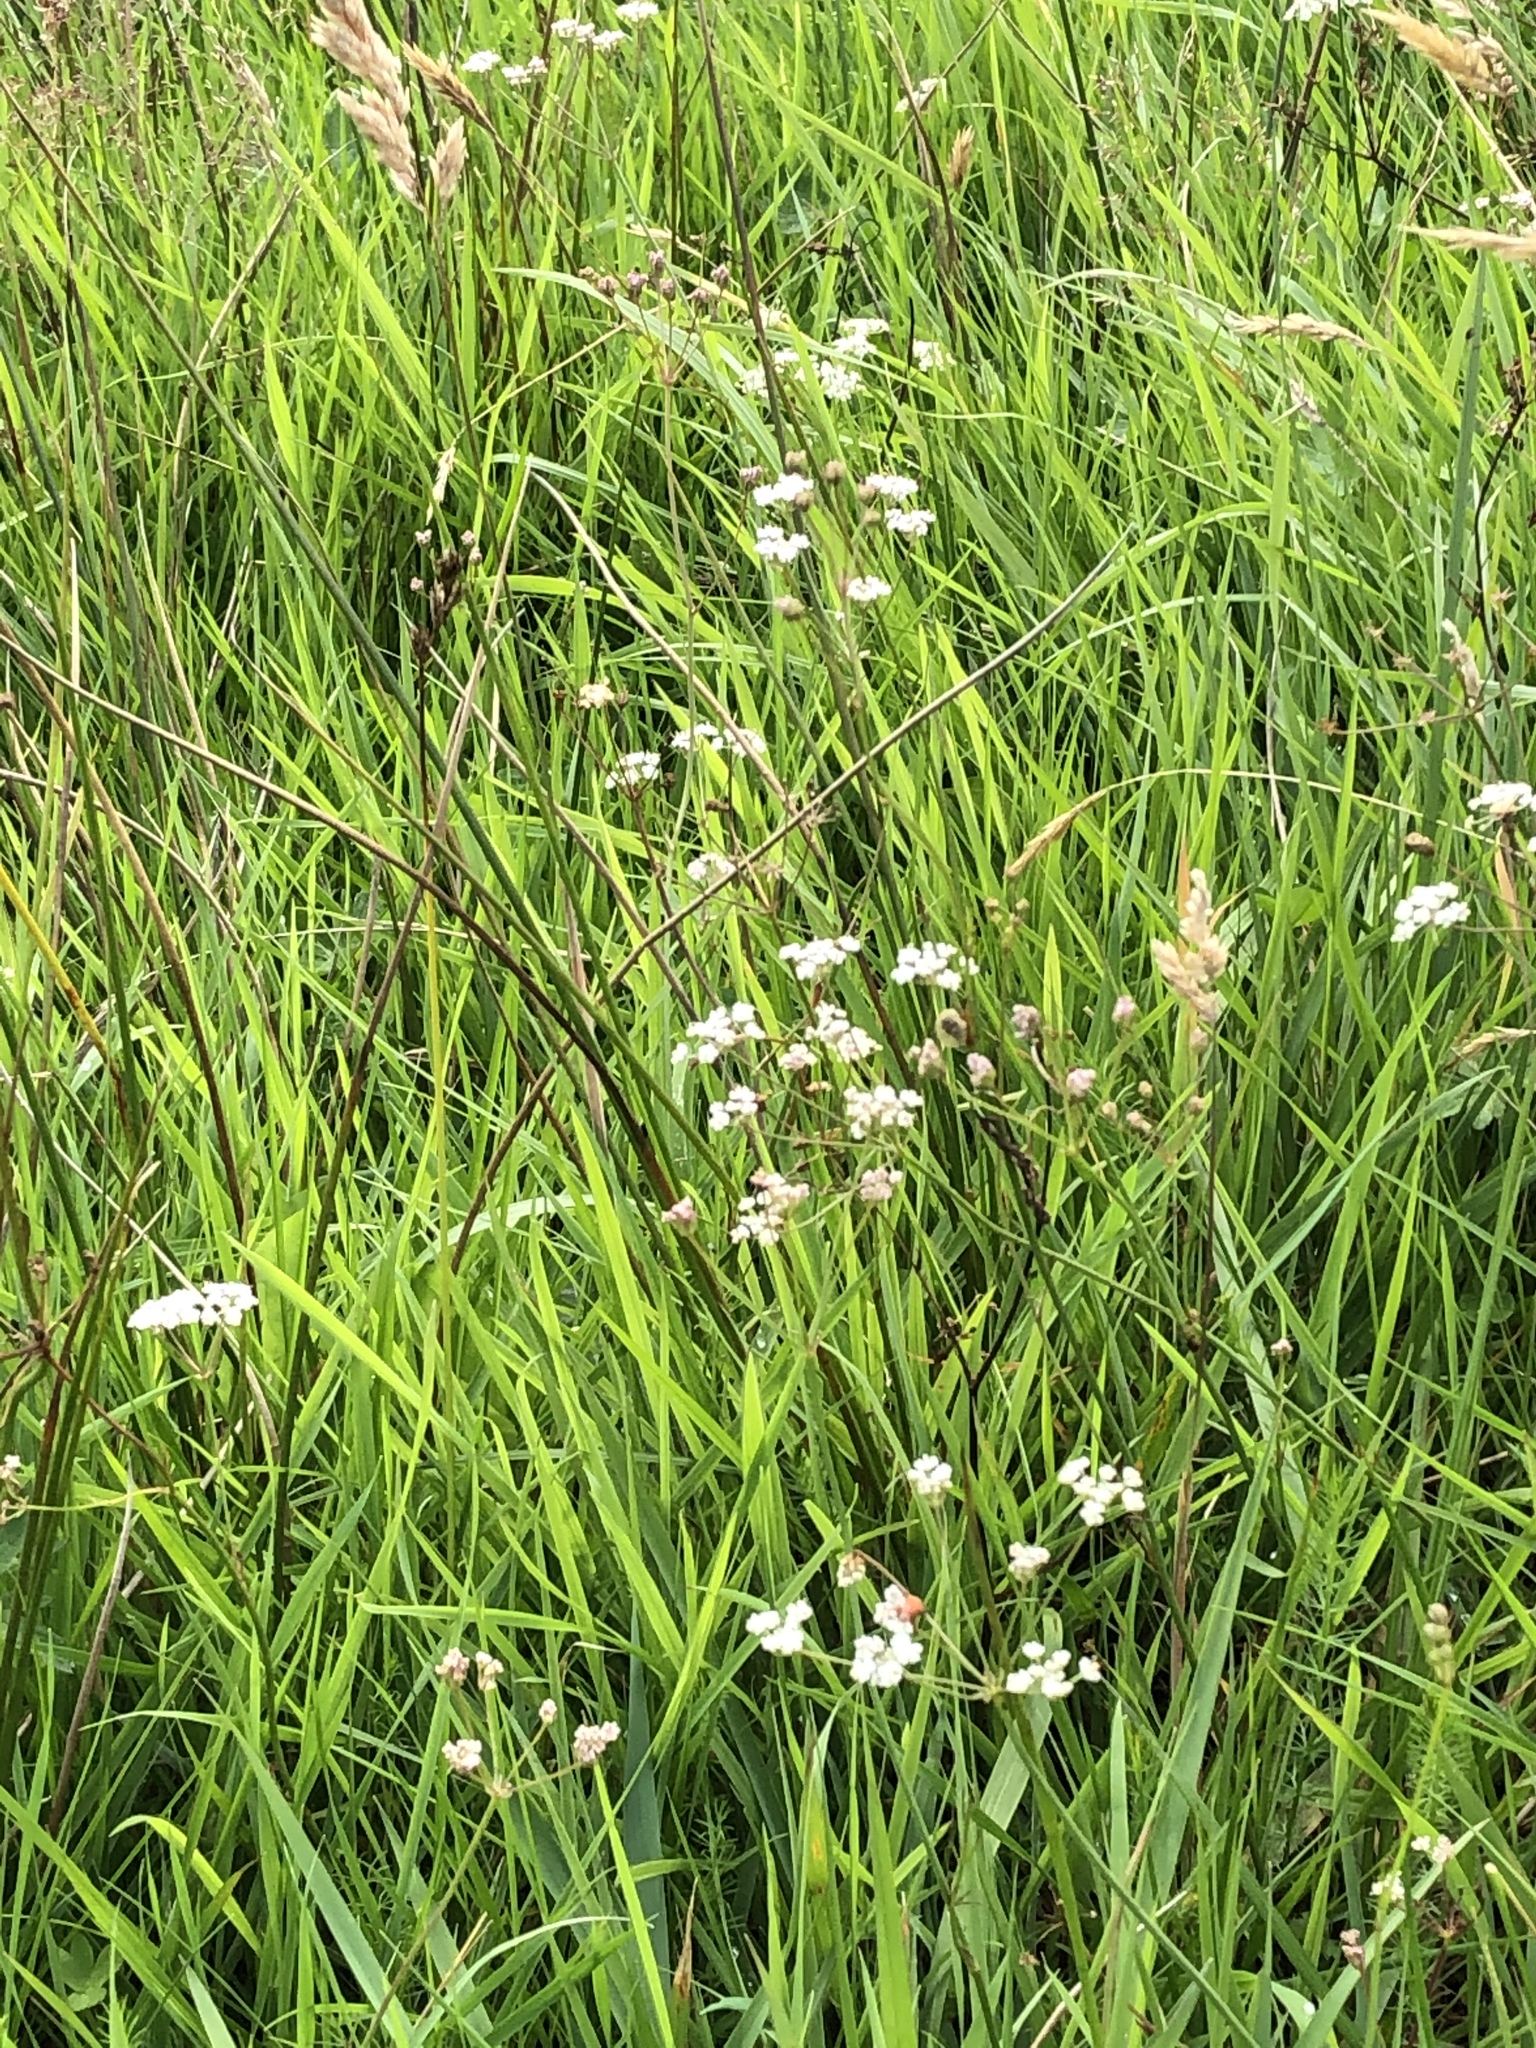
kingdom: Plantae
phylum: Tracheophyta
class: Magnoliopsida
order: Apiales
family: Apiaceae
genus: Trocdaris
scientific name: Trocdaris verticillatum
